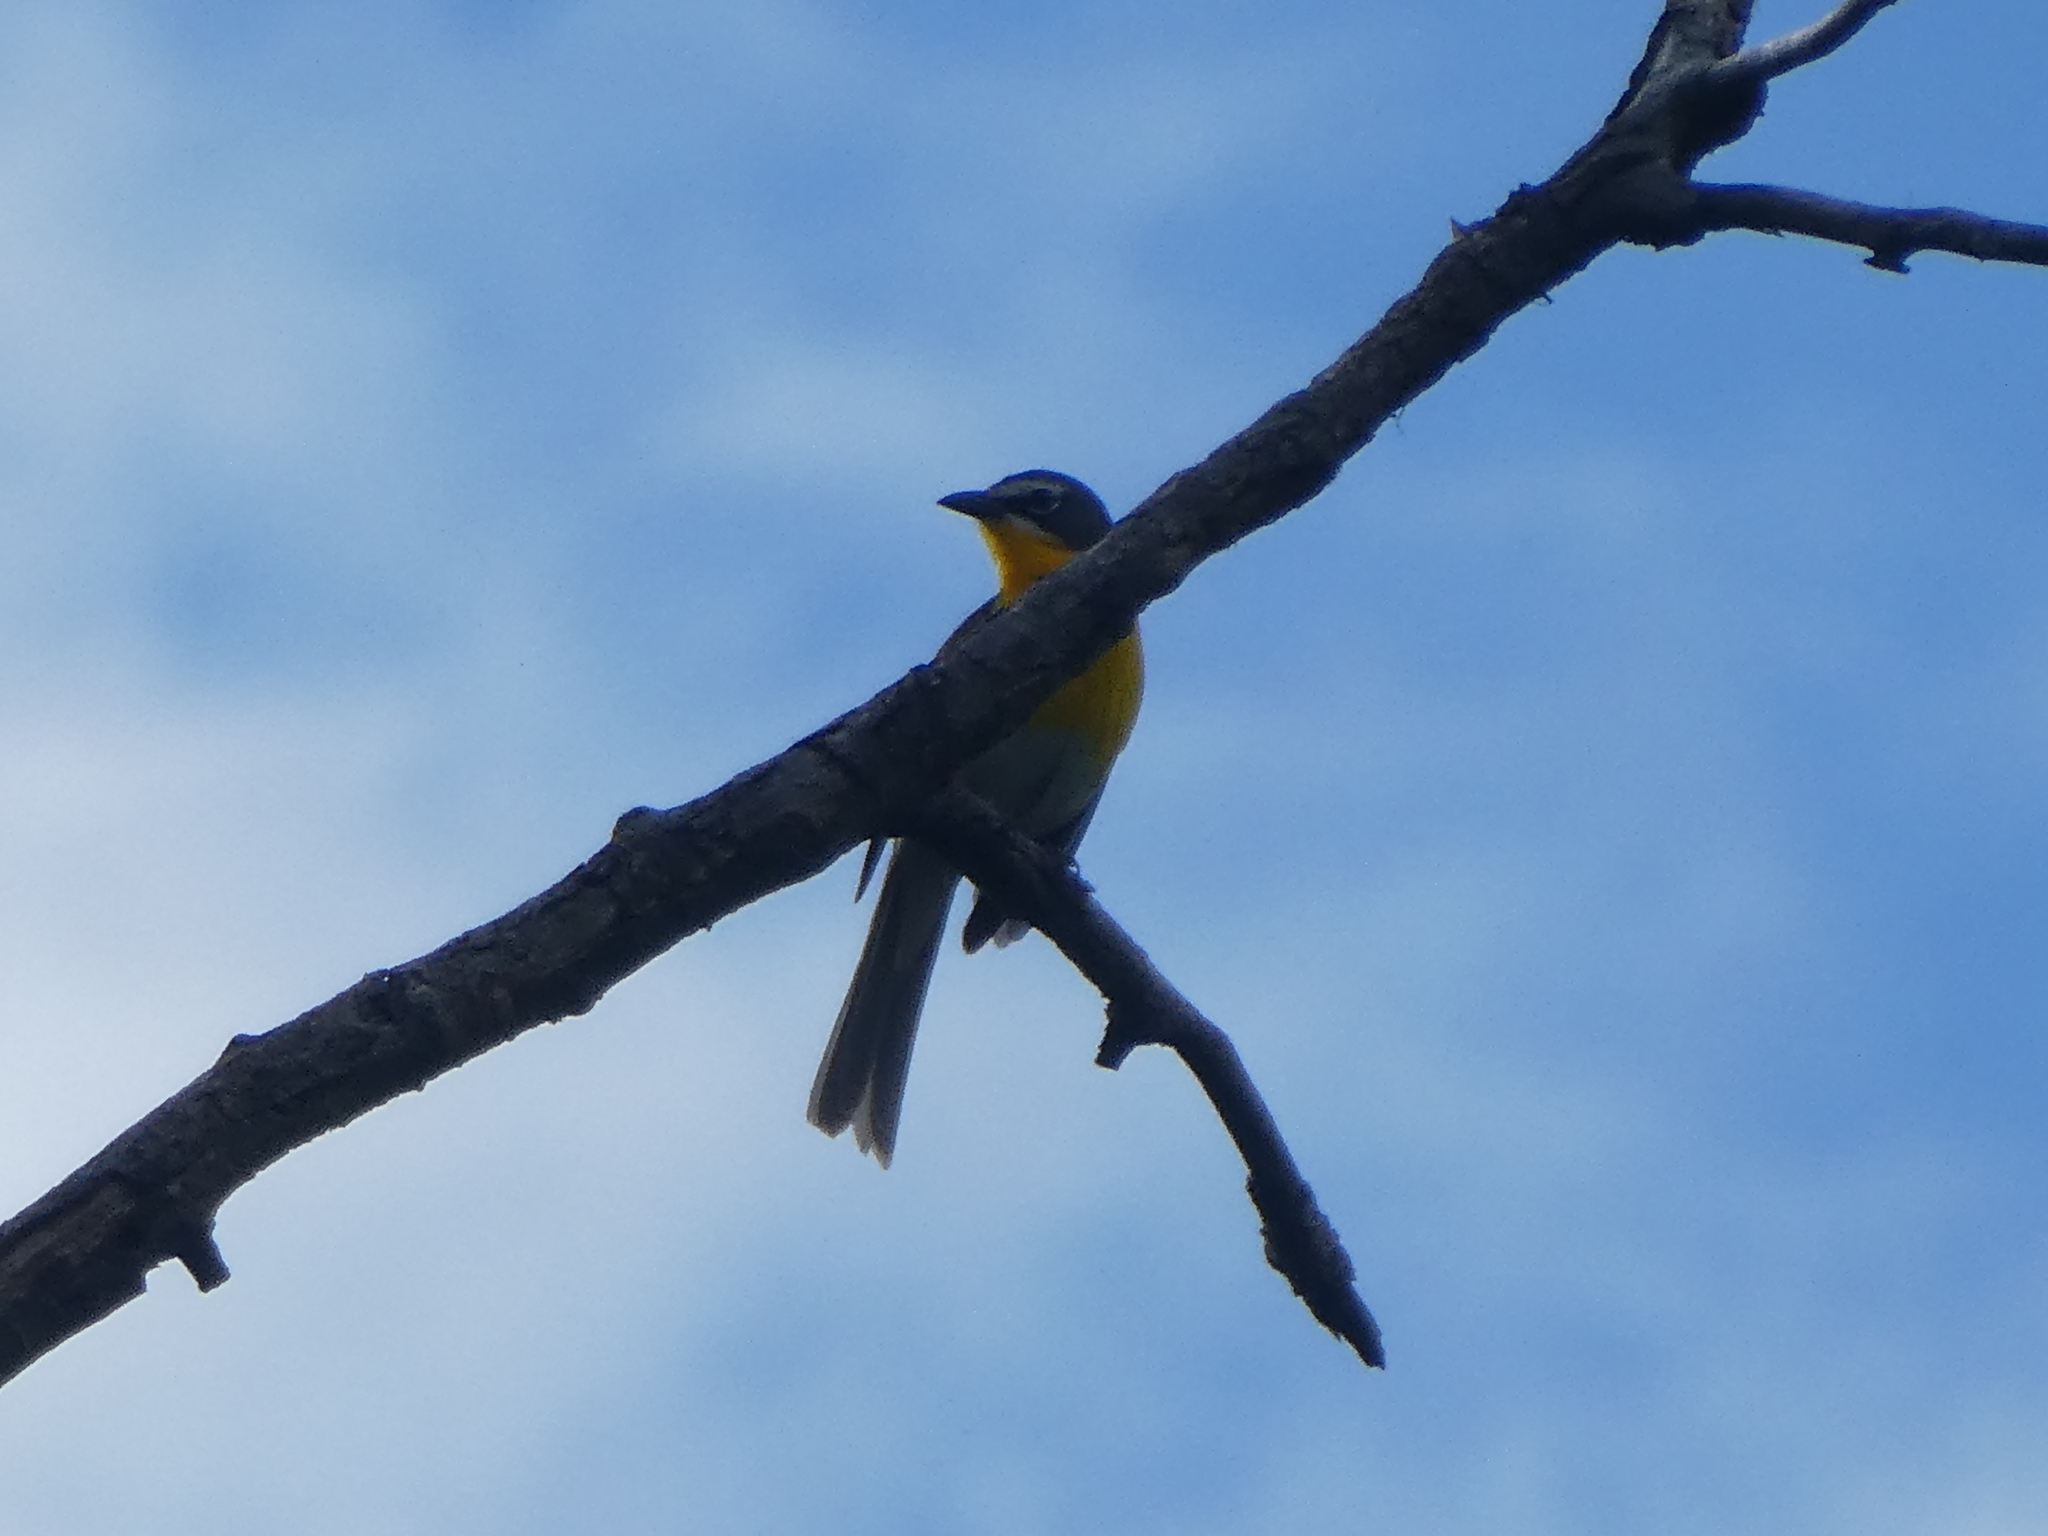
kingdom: Animalia
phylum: Chordata
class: Aves
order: Passeriformes
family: Parulidae
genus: Icteria
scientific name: Icteria virens
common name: Yellow-breasted chat
